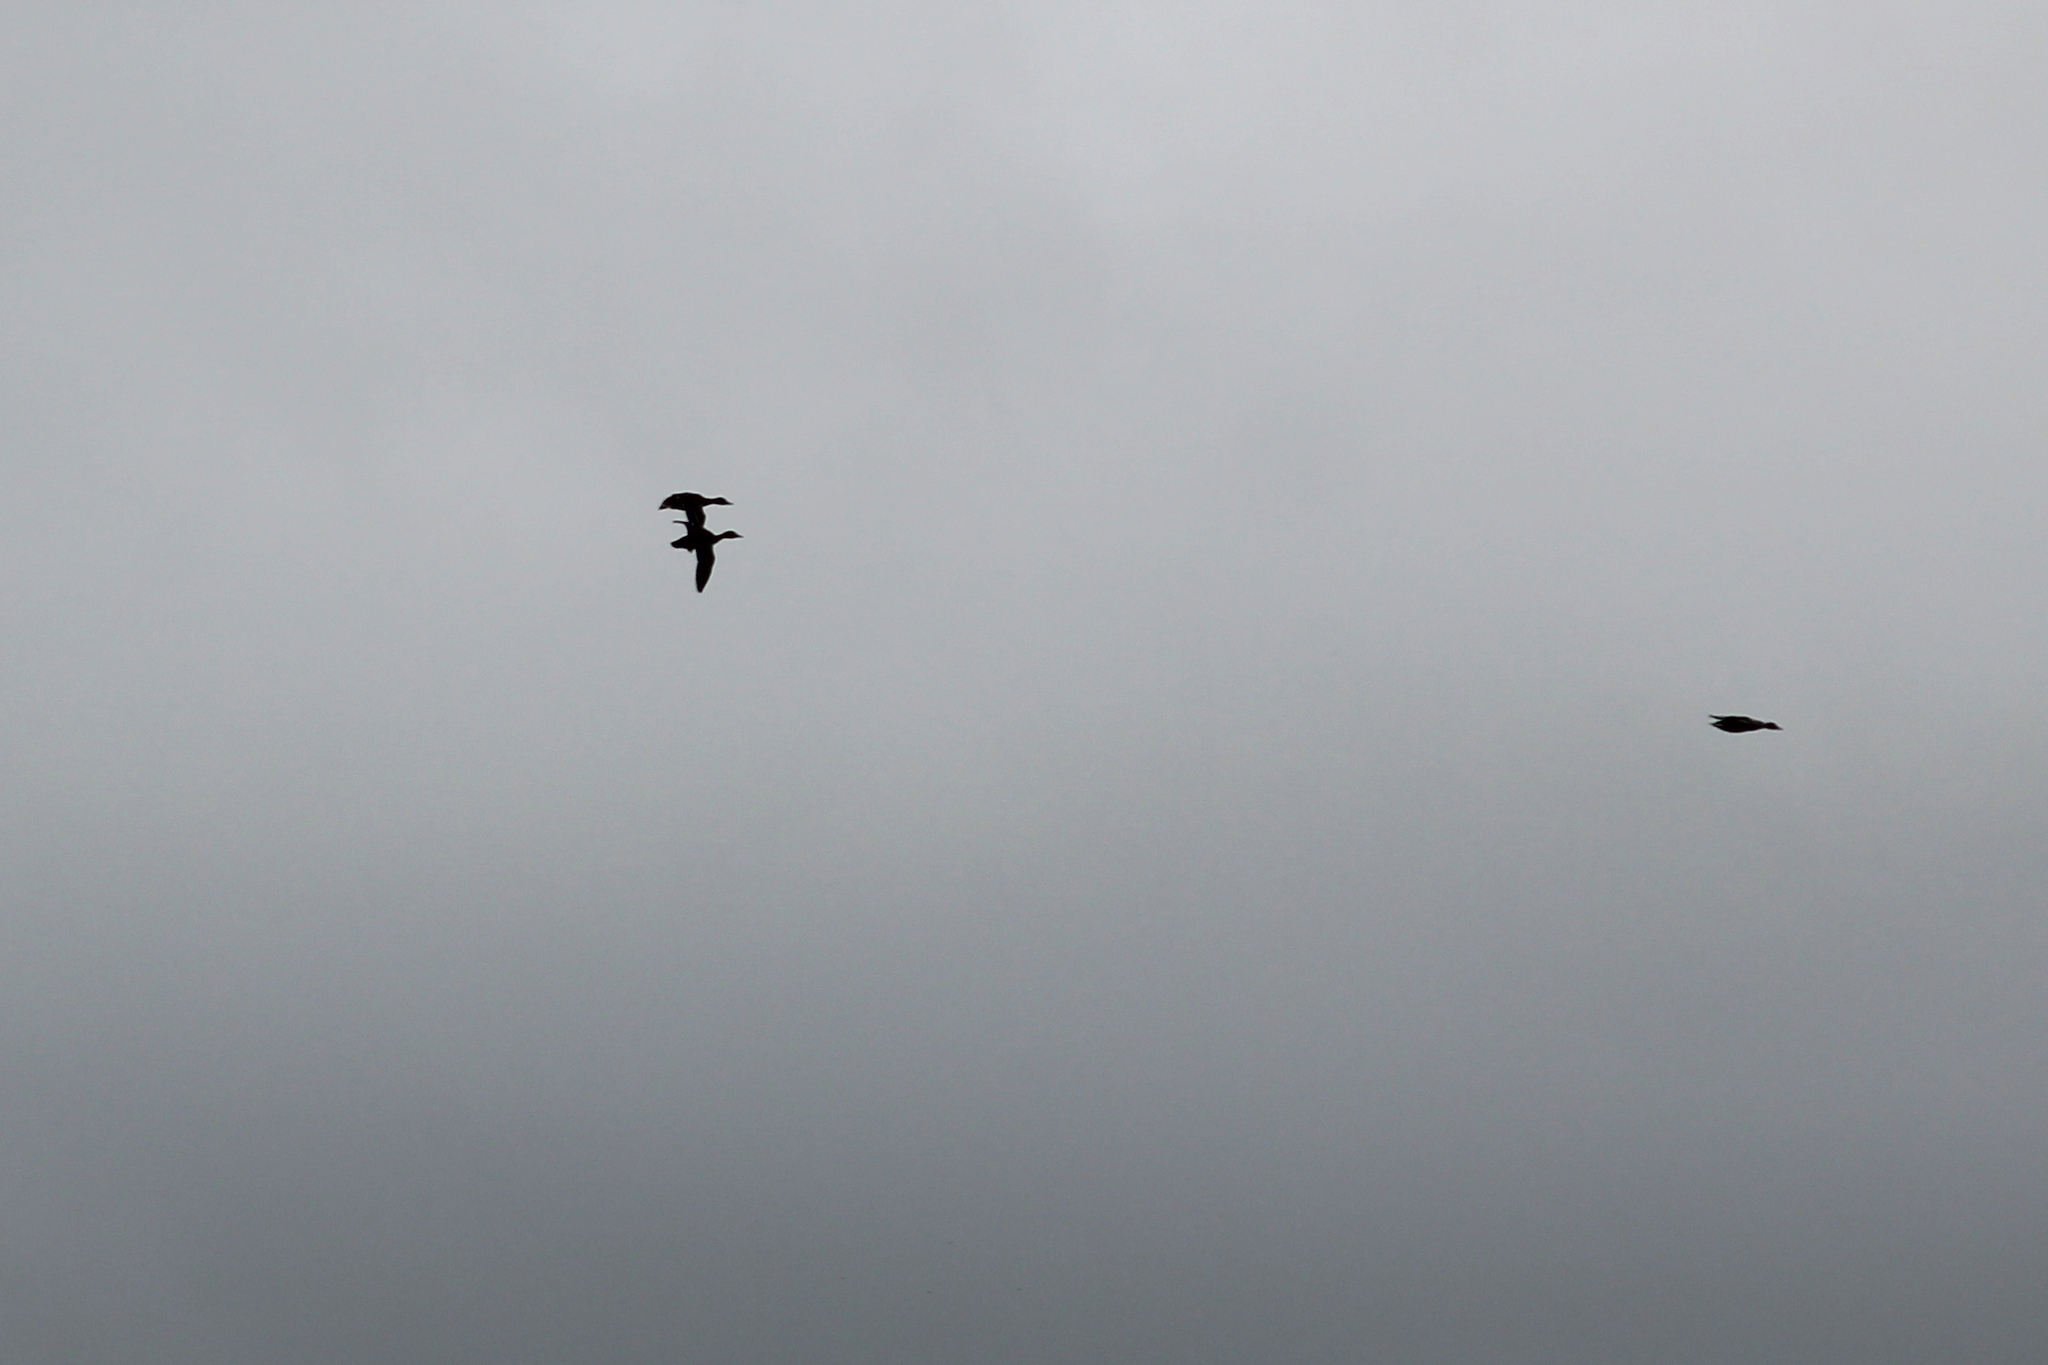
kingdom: Animalia
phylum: Chordata
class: Aves
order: Anseriformes
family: Anatidae
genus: Anas
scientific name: Anas platyrhynchos
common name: Mallard
